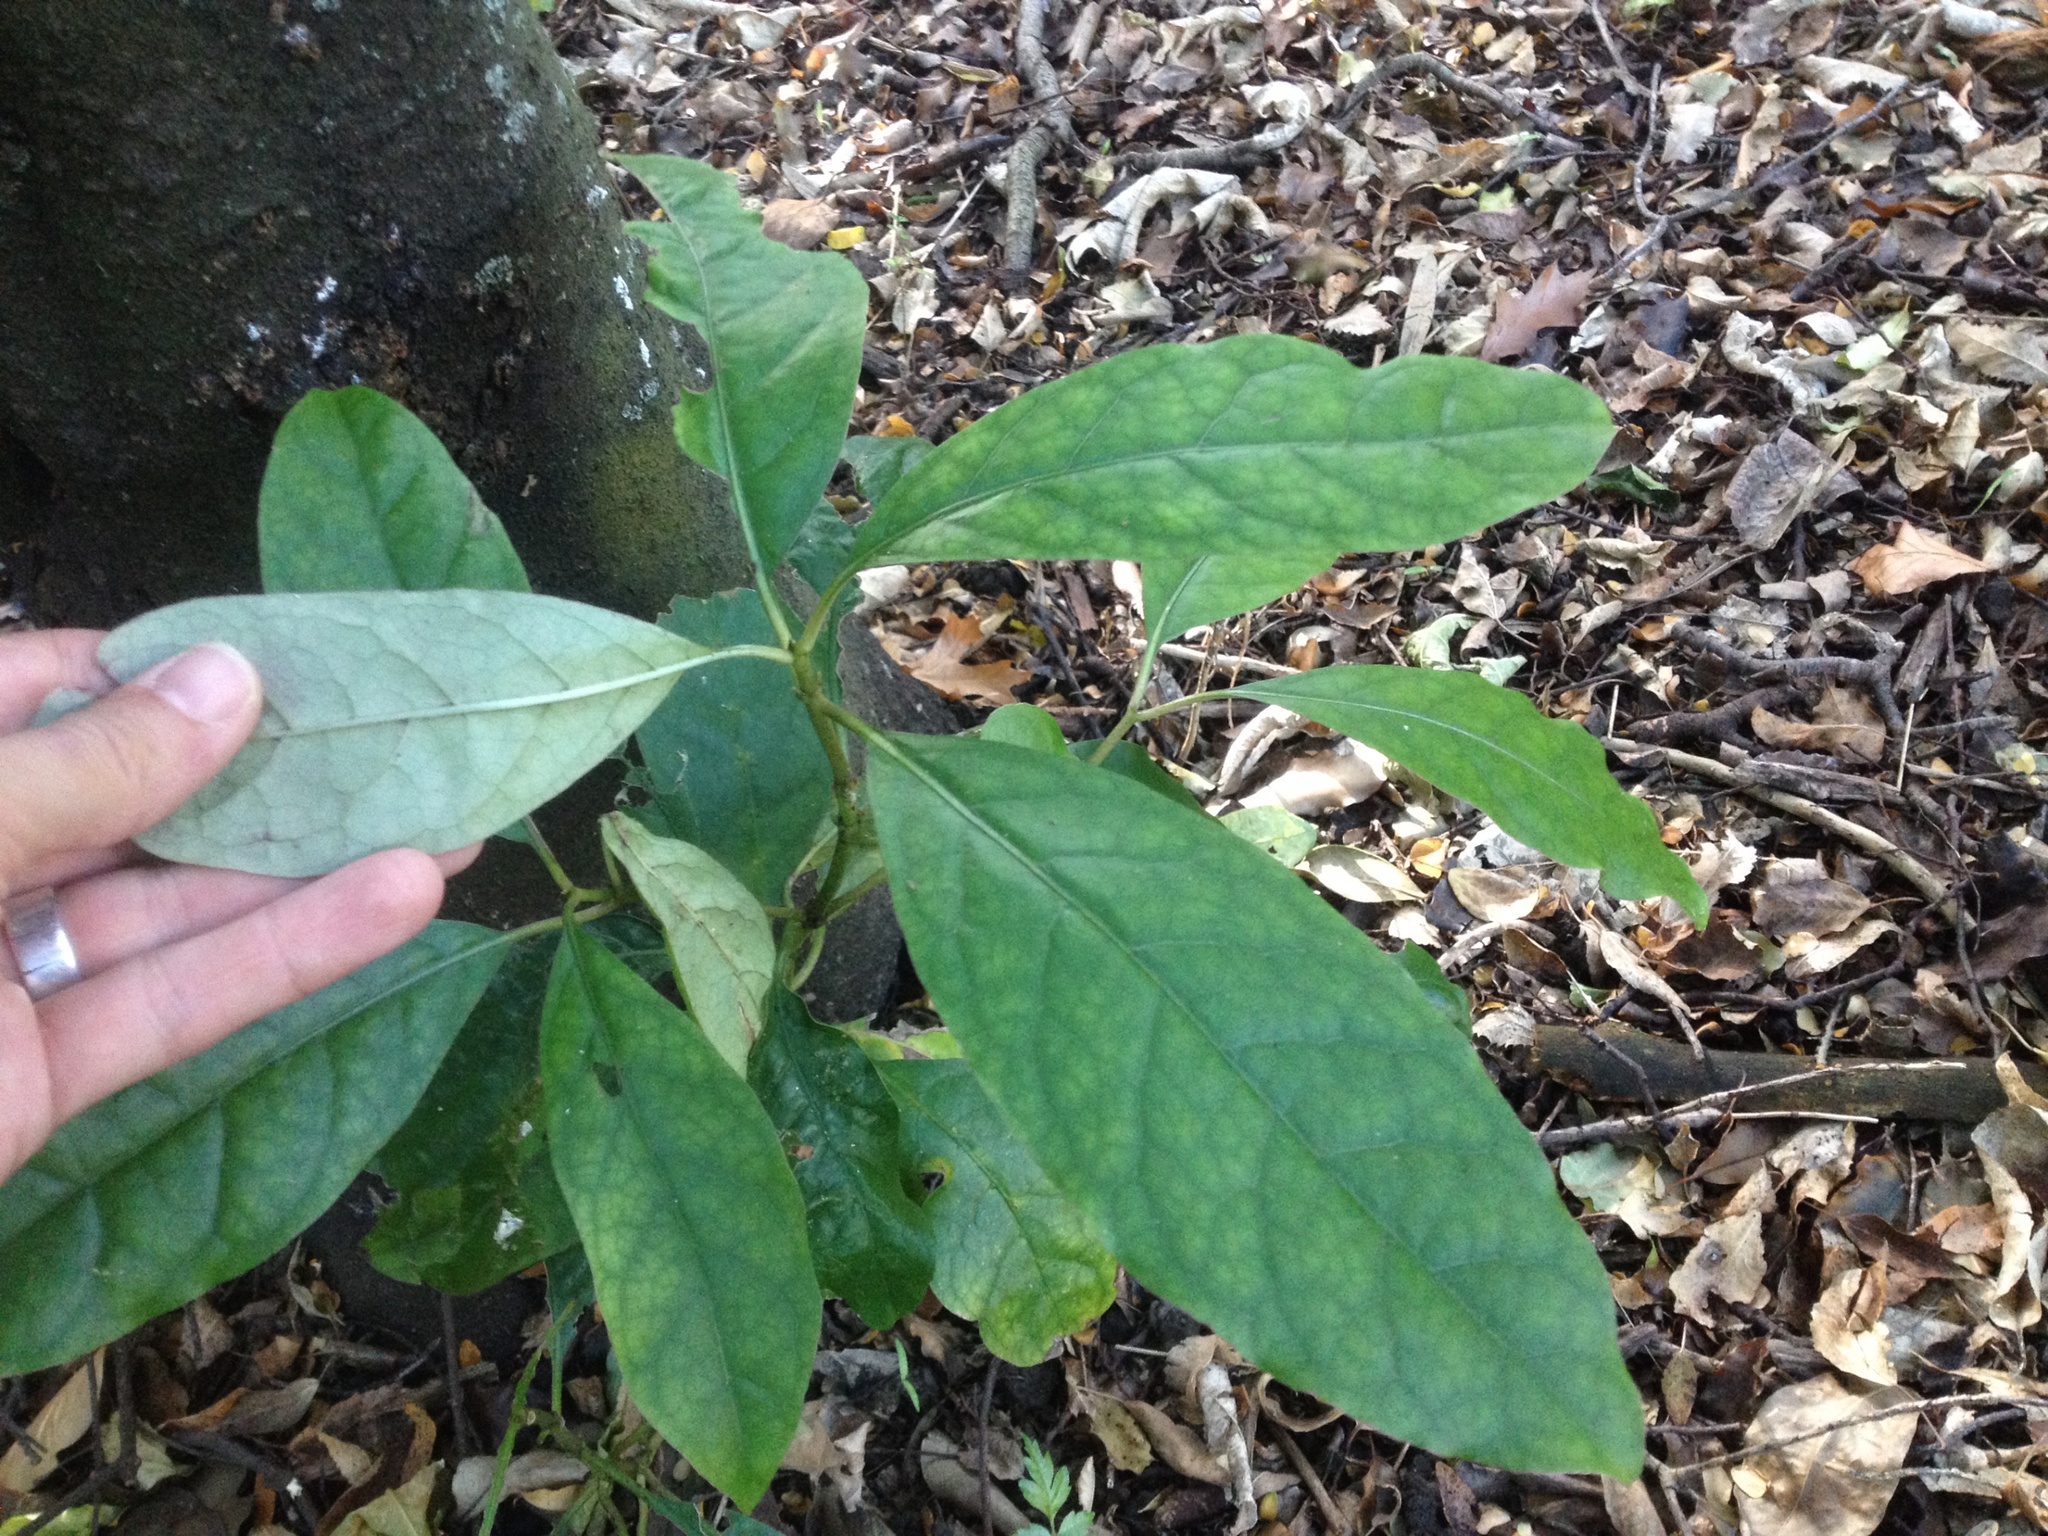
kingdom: Plantae
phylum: Tracheophyta
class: Magnoliopsida
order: Gentianales
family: Rubiaceae
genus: Coprosma
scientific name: Coprosma autumnalis
